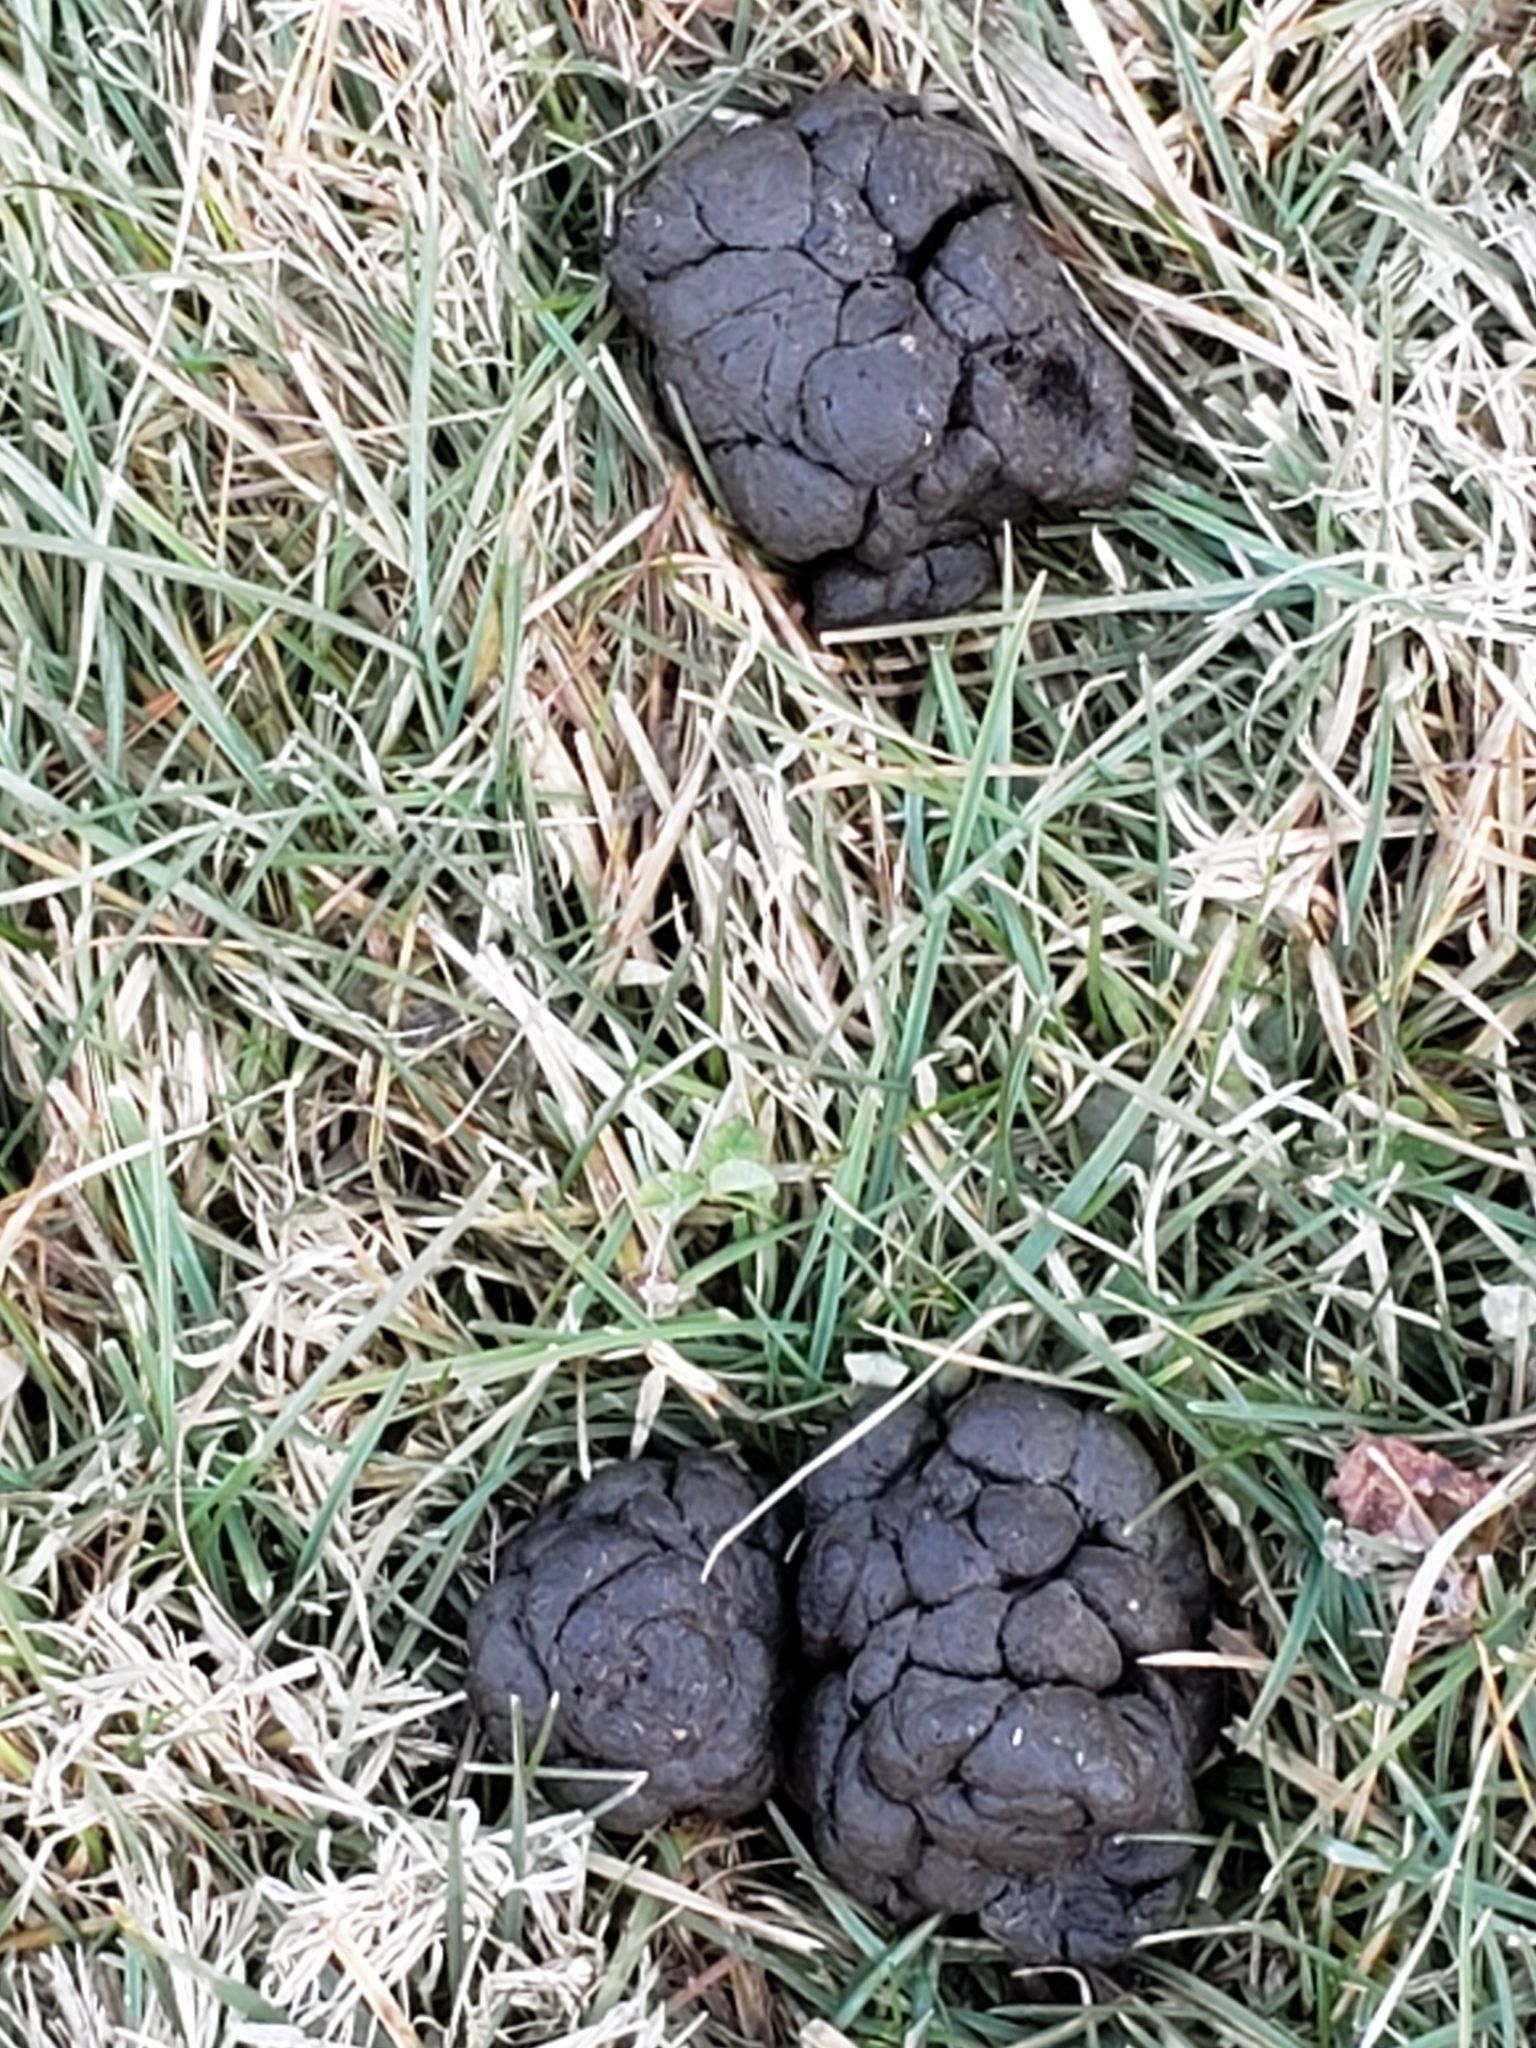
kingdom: Animalia
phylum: Chordata
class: Mammalia
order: Artiodactyla
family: Cervidae
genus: Odocoileus
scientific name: Odocoileus virginianus
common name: White-tailed deer
